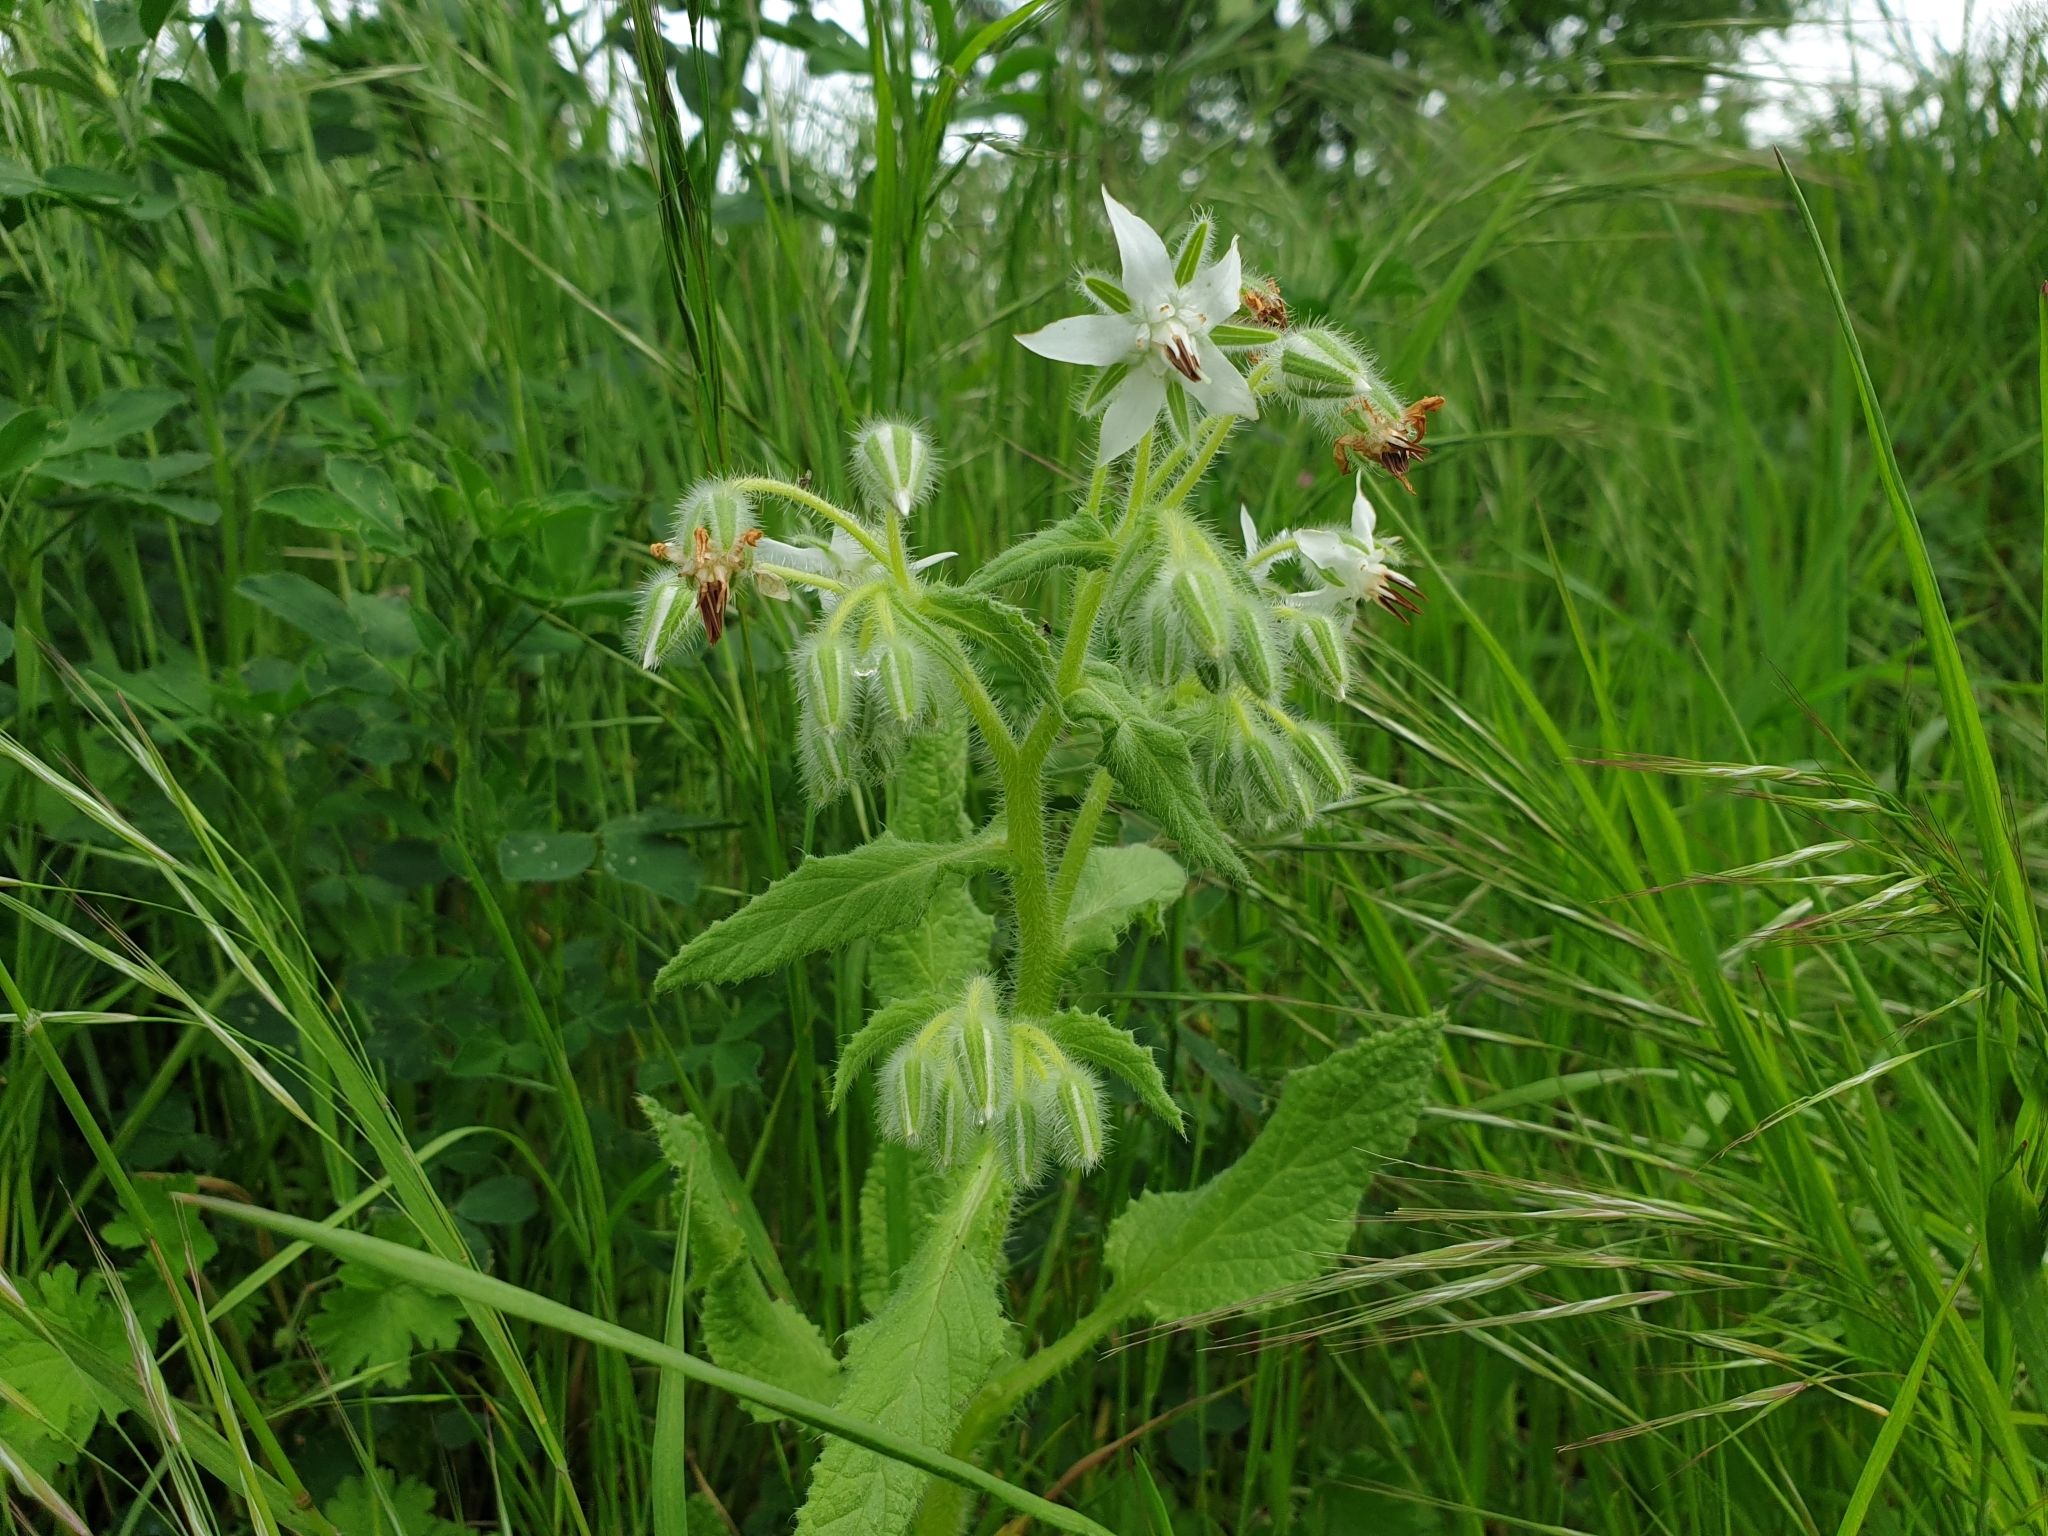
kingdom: Plantae
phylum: Tracheophyta
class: Magnoliopsida
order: Boraginales
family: Boraginaceae
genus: Borago
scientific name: Borago officinalis
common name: Borage
